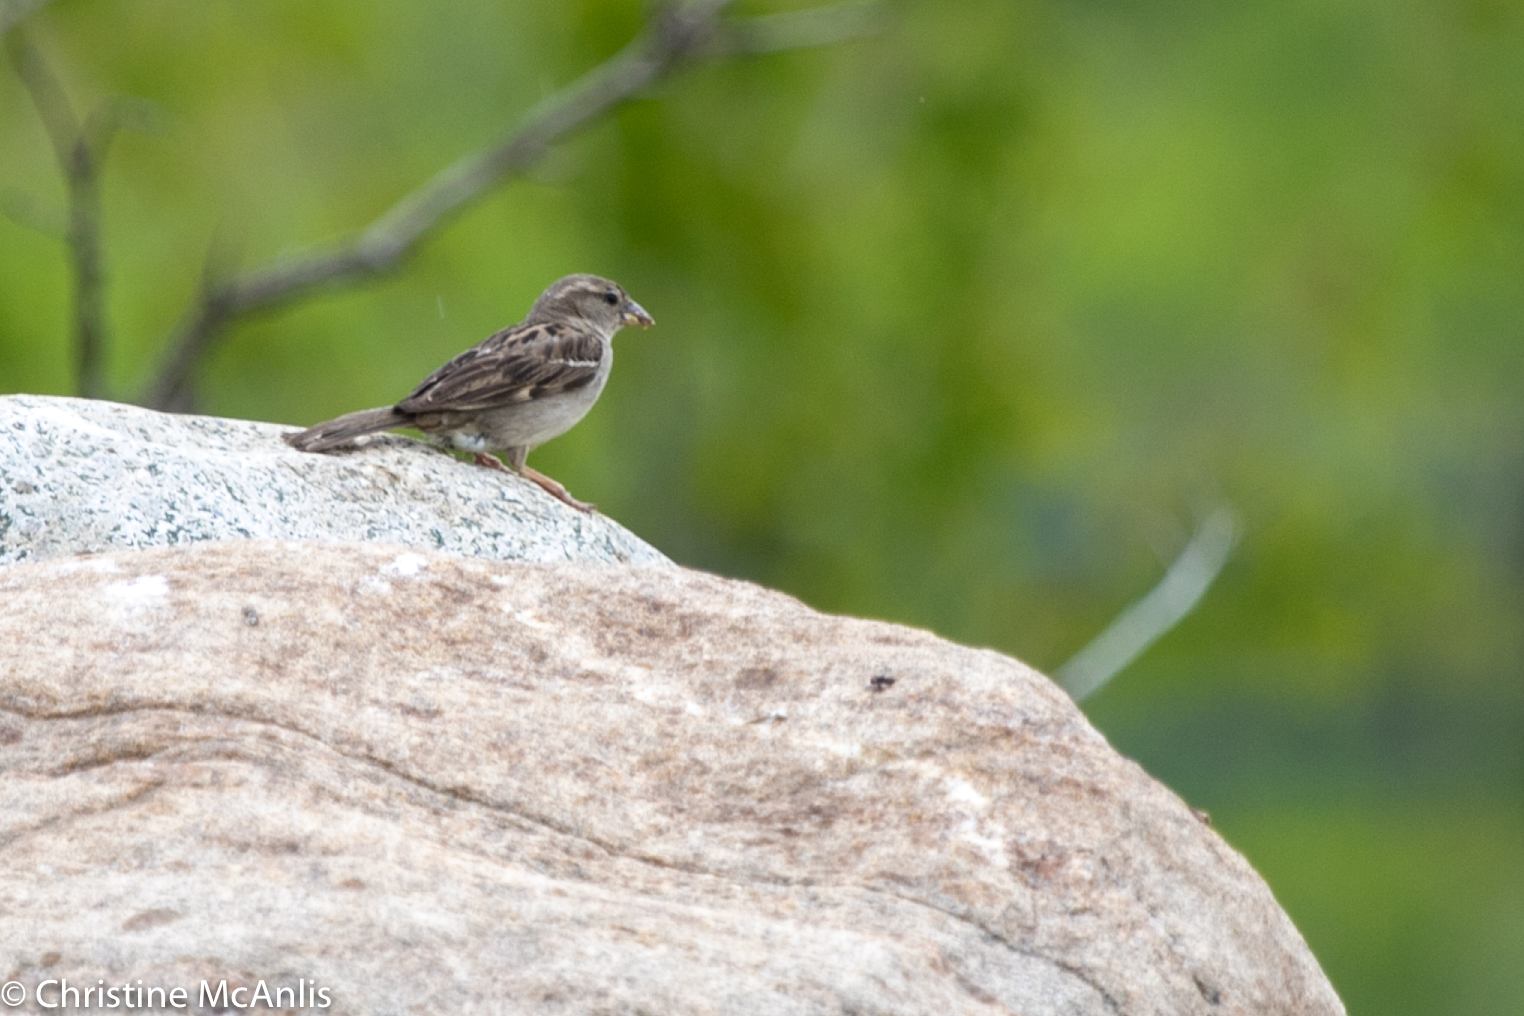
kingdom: Animalia
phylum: Chordata
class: Aves
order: Passeriformes
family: Passeridae
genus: Passer
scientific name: Passer domesticus
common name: House sparrow
